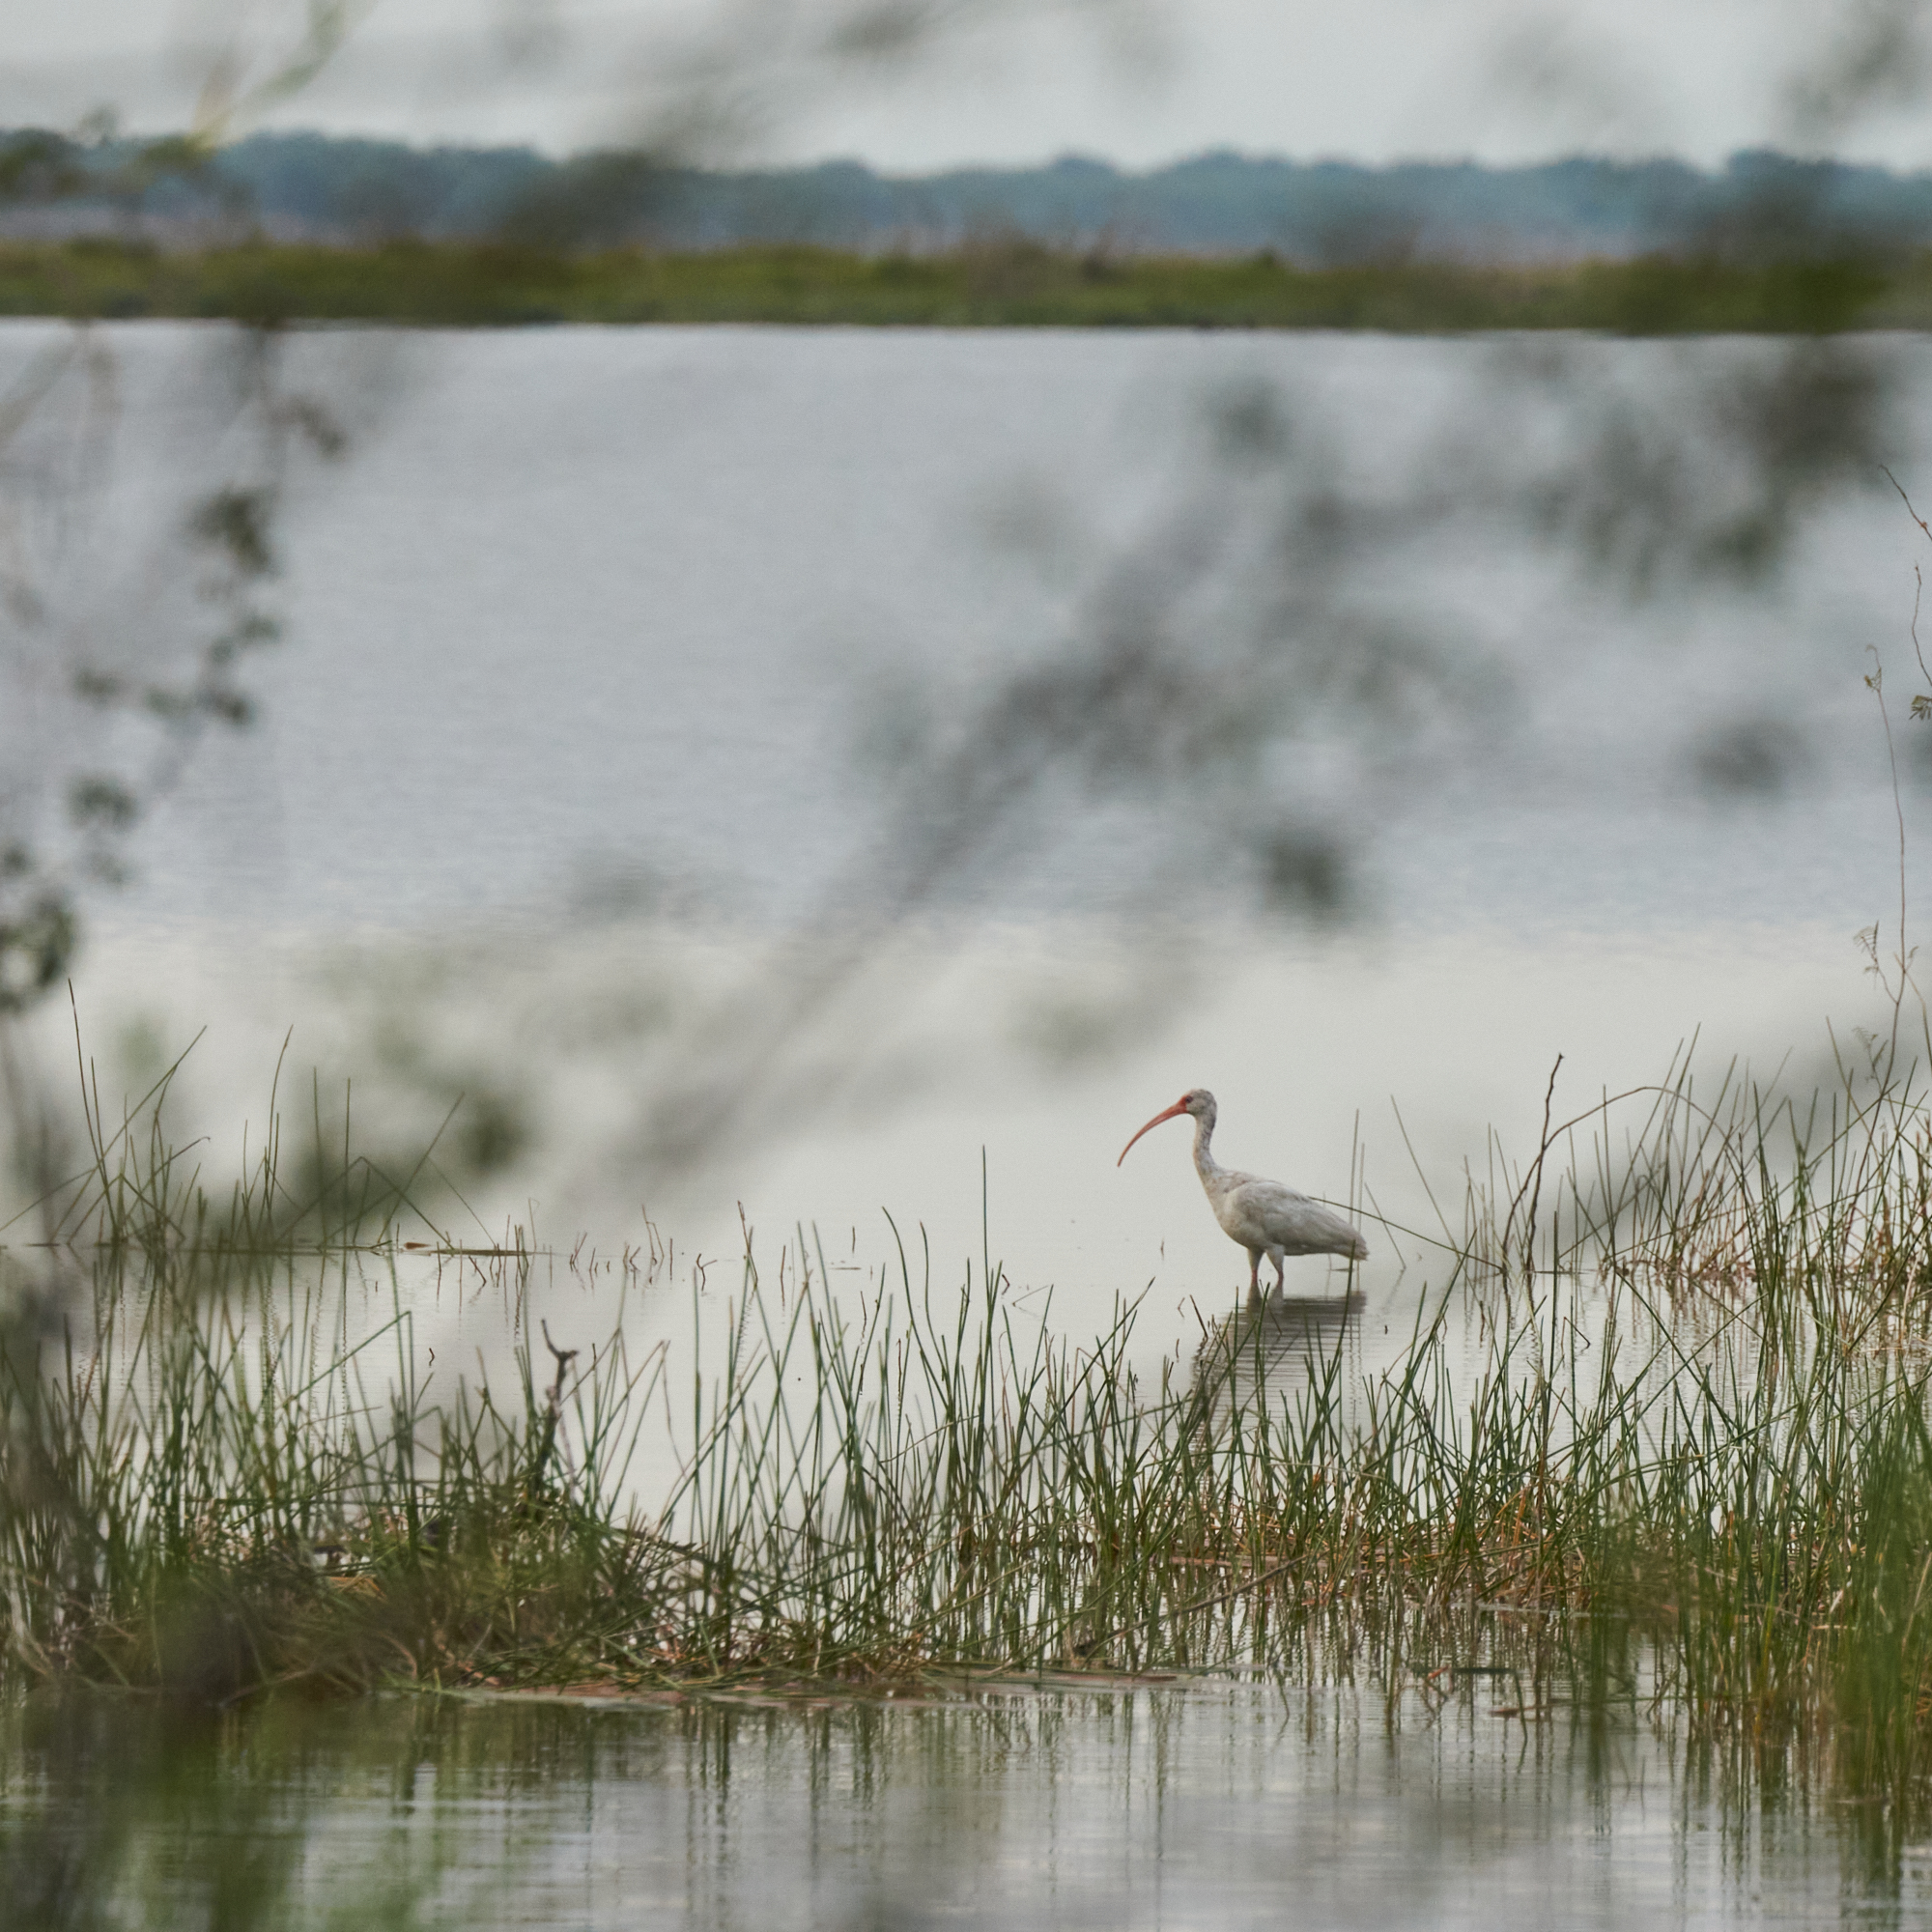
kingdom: Animalia
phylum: Chordata
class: Aves
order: Pelecaniformes
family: Threskiornithidae
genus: Eudocimus
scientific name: Eudocimus albus
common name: White ibis
